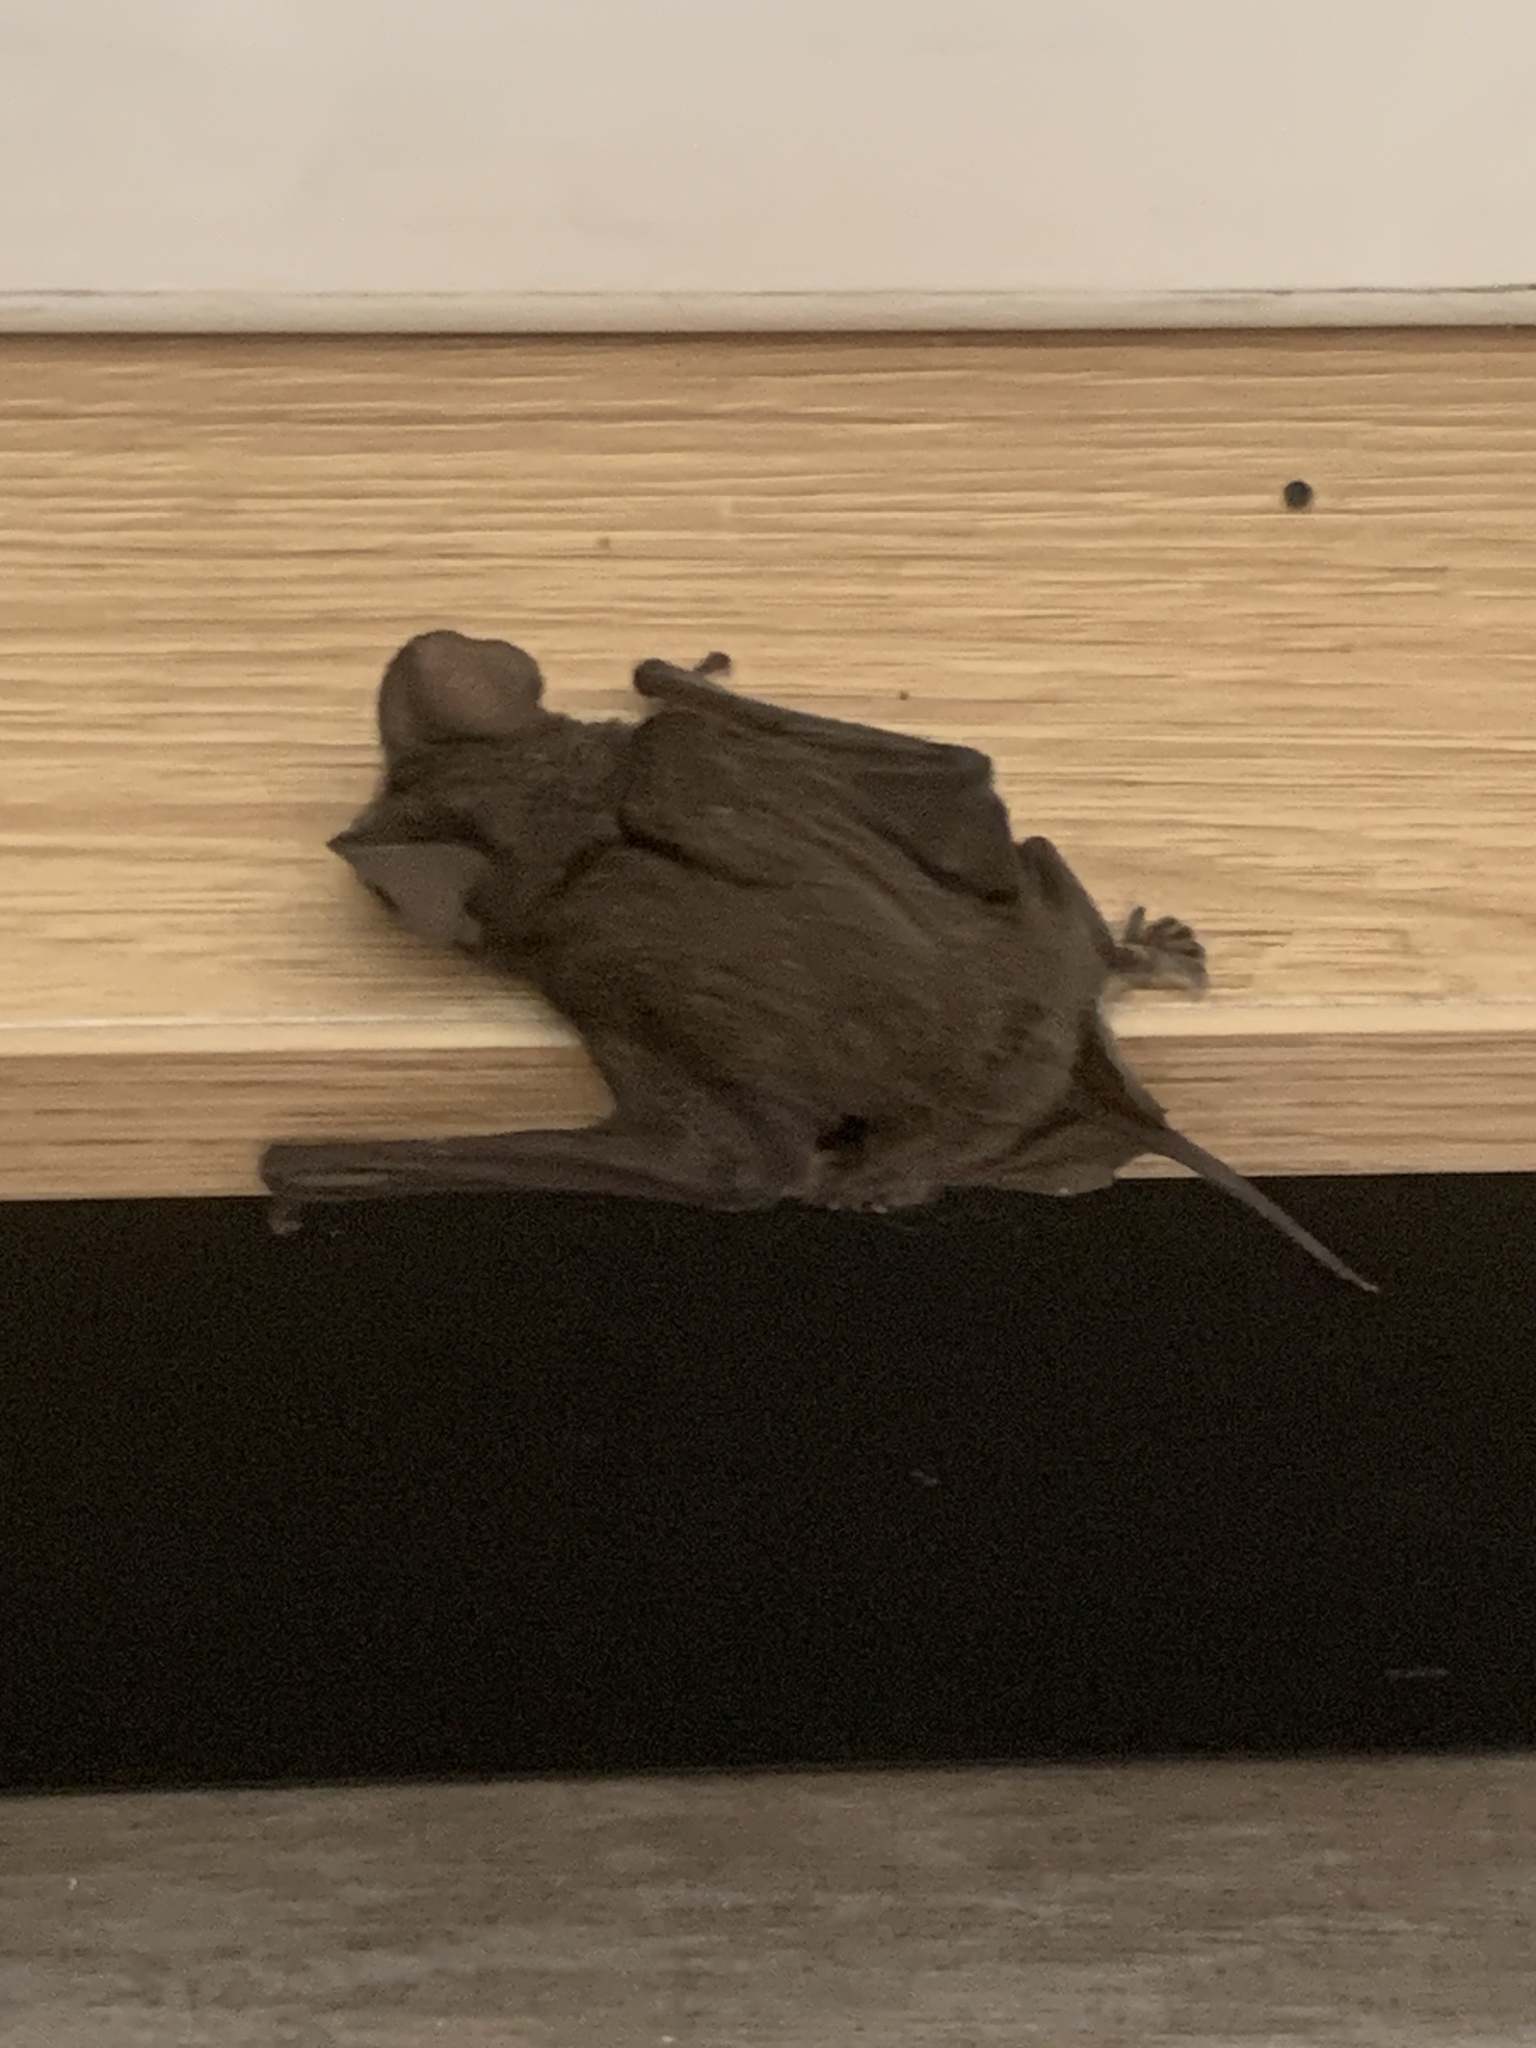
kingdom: Animalia
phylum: Chordata
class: Mammalia
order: Chiroptera
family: Molossidae
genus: Tadarida
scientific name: Tadarida brasiliensis
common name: Mexican free-tailed bat
